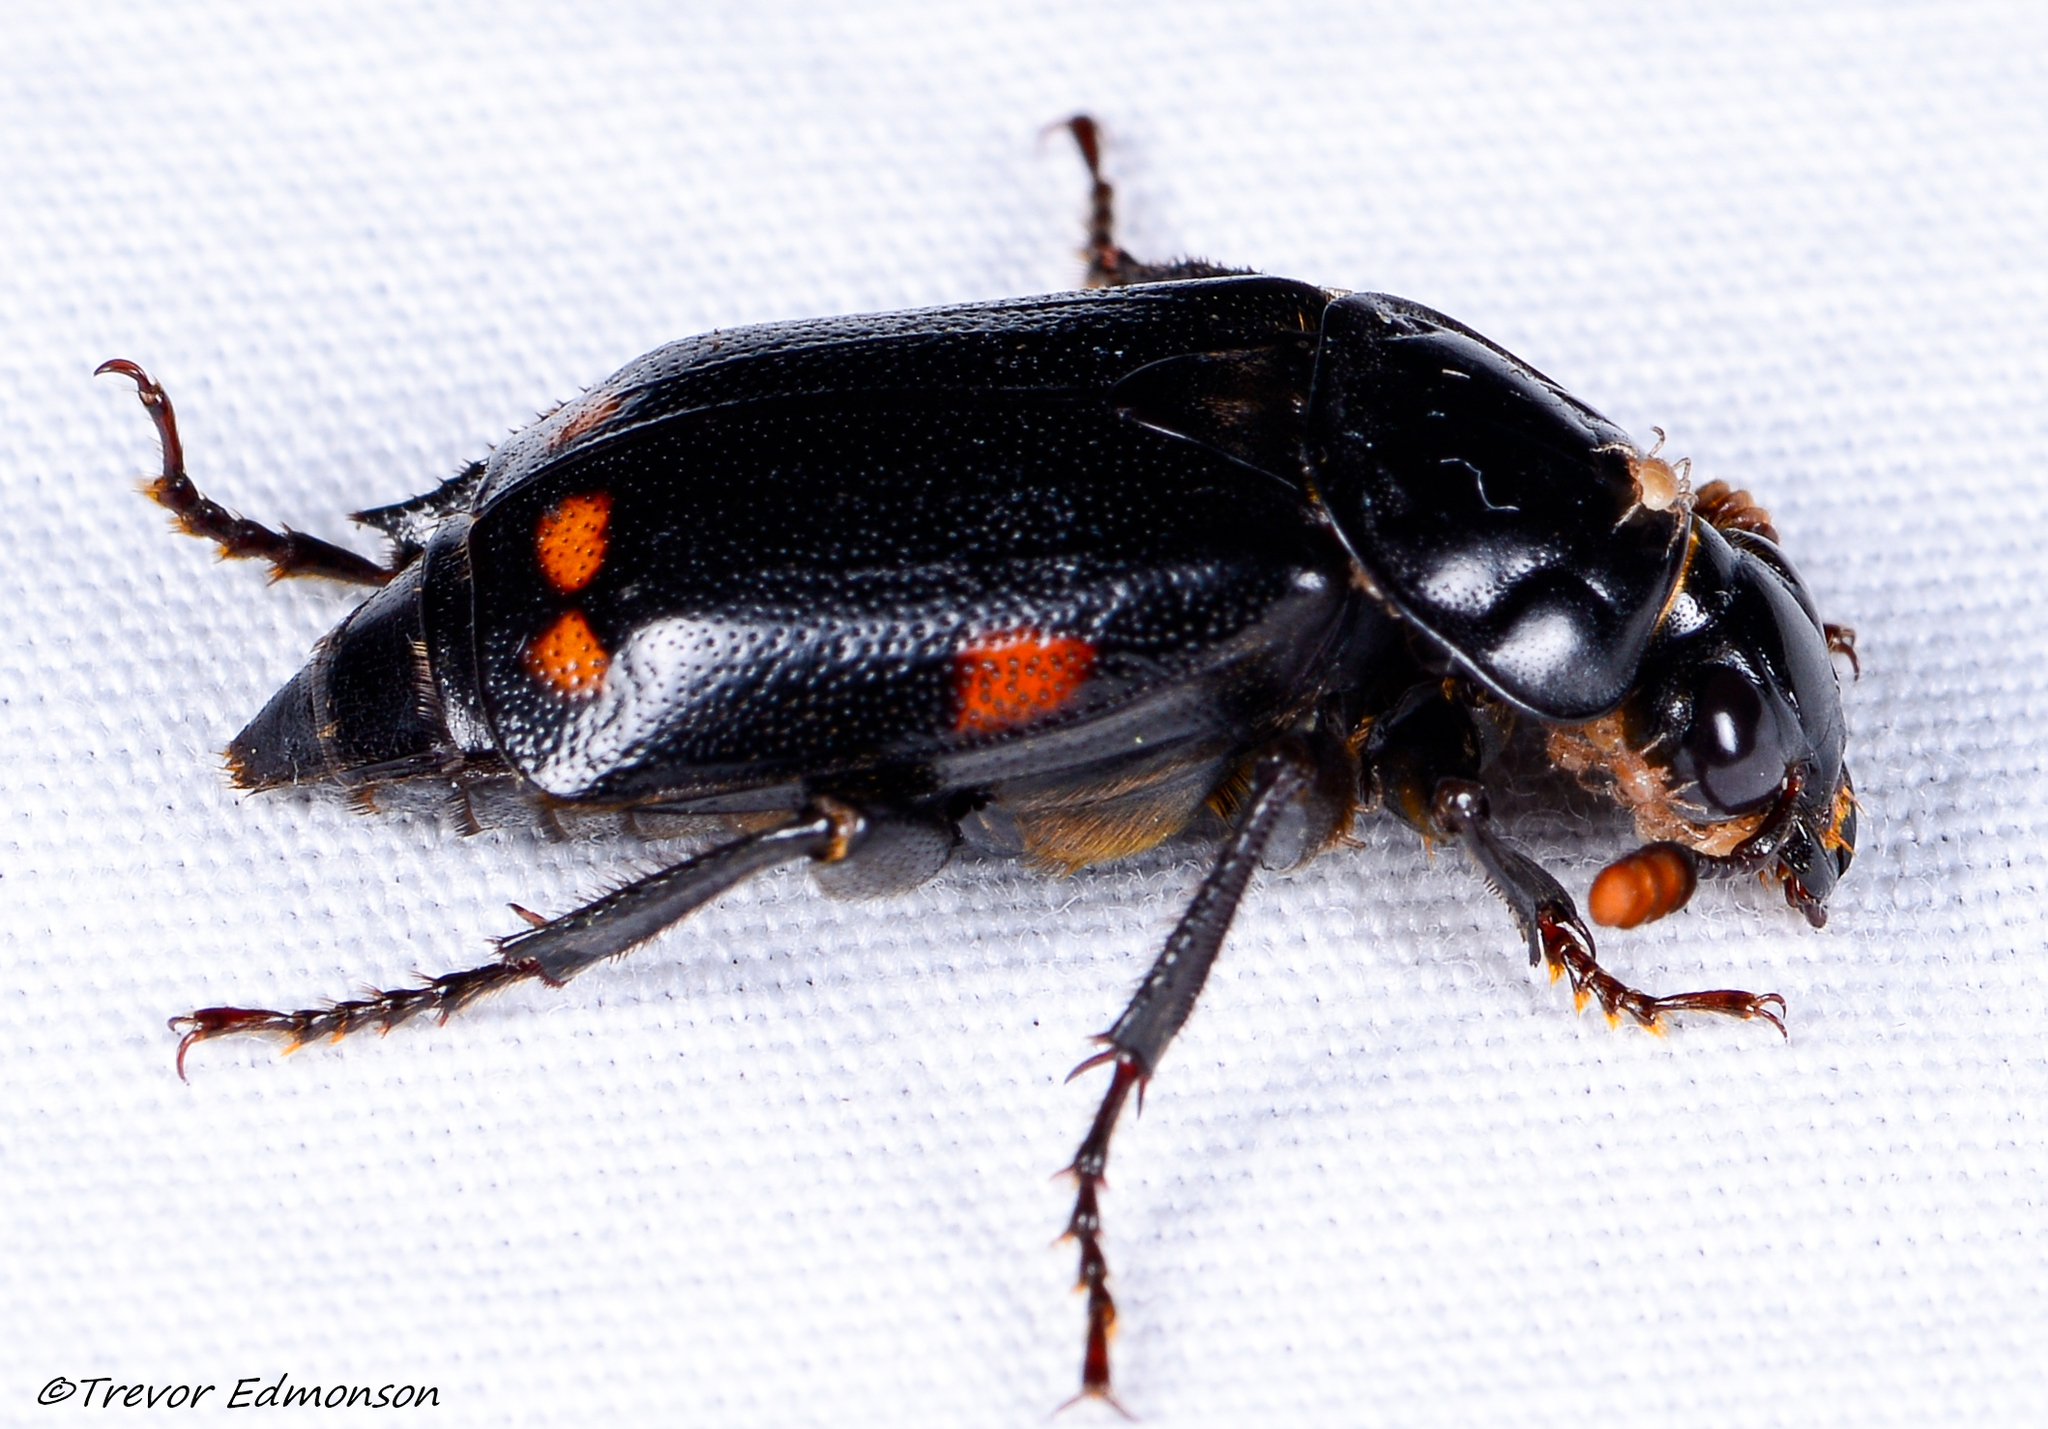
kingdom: Animalia
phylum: Arthropoda
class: Insecta
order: Coleoptera
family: Staphylinidae
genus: Nicrophorus
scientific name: Nicrophorus pustulatus
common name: Pustulated carrion beetle
